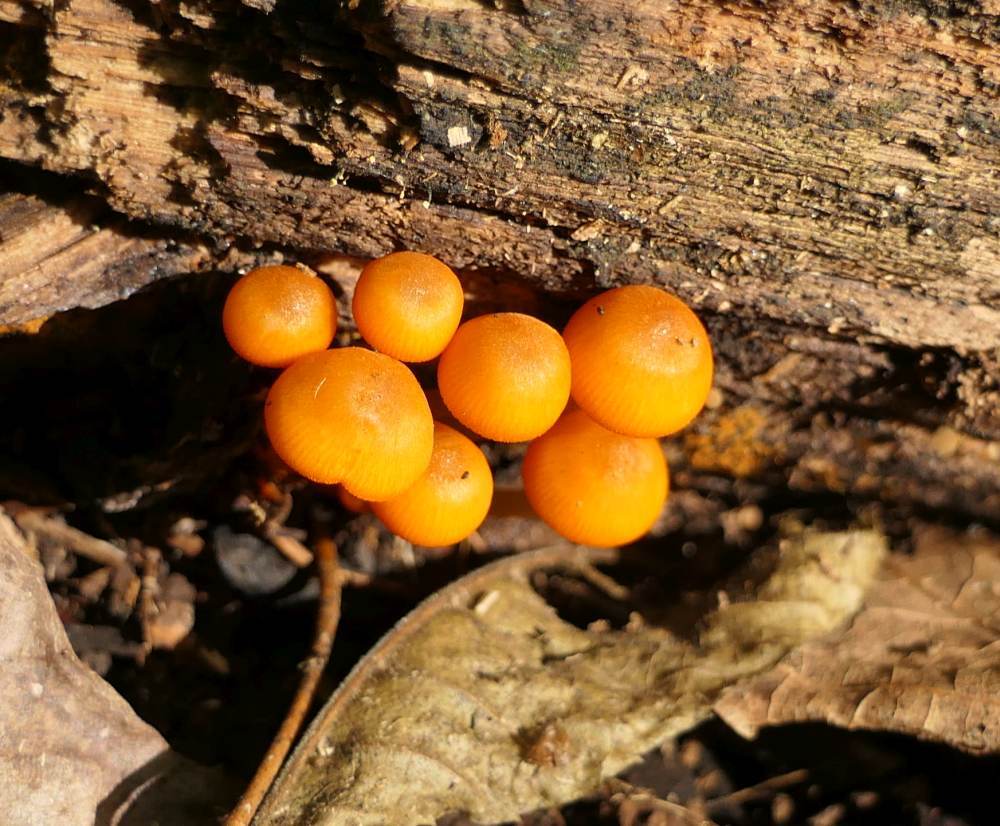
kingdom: Fungi
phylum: Basidiomycota
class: Agaricomycetes
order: Agaricales
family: Mycenaceae
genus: Mycena
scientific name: Mycena leaiana
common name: Orange mycena
